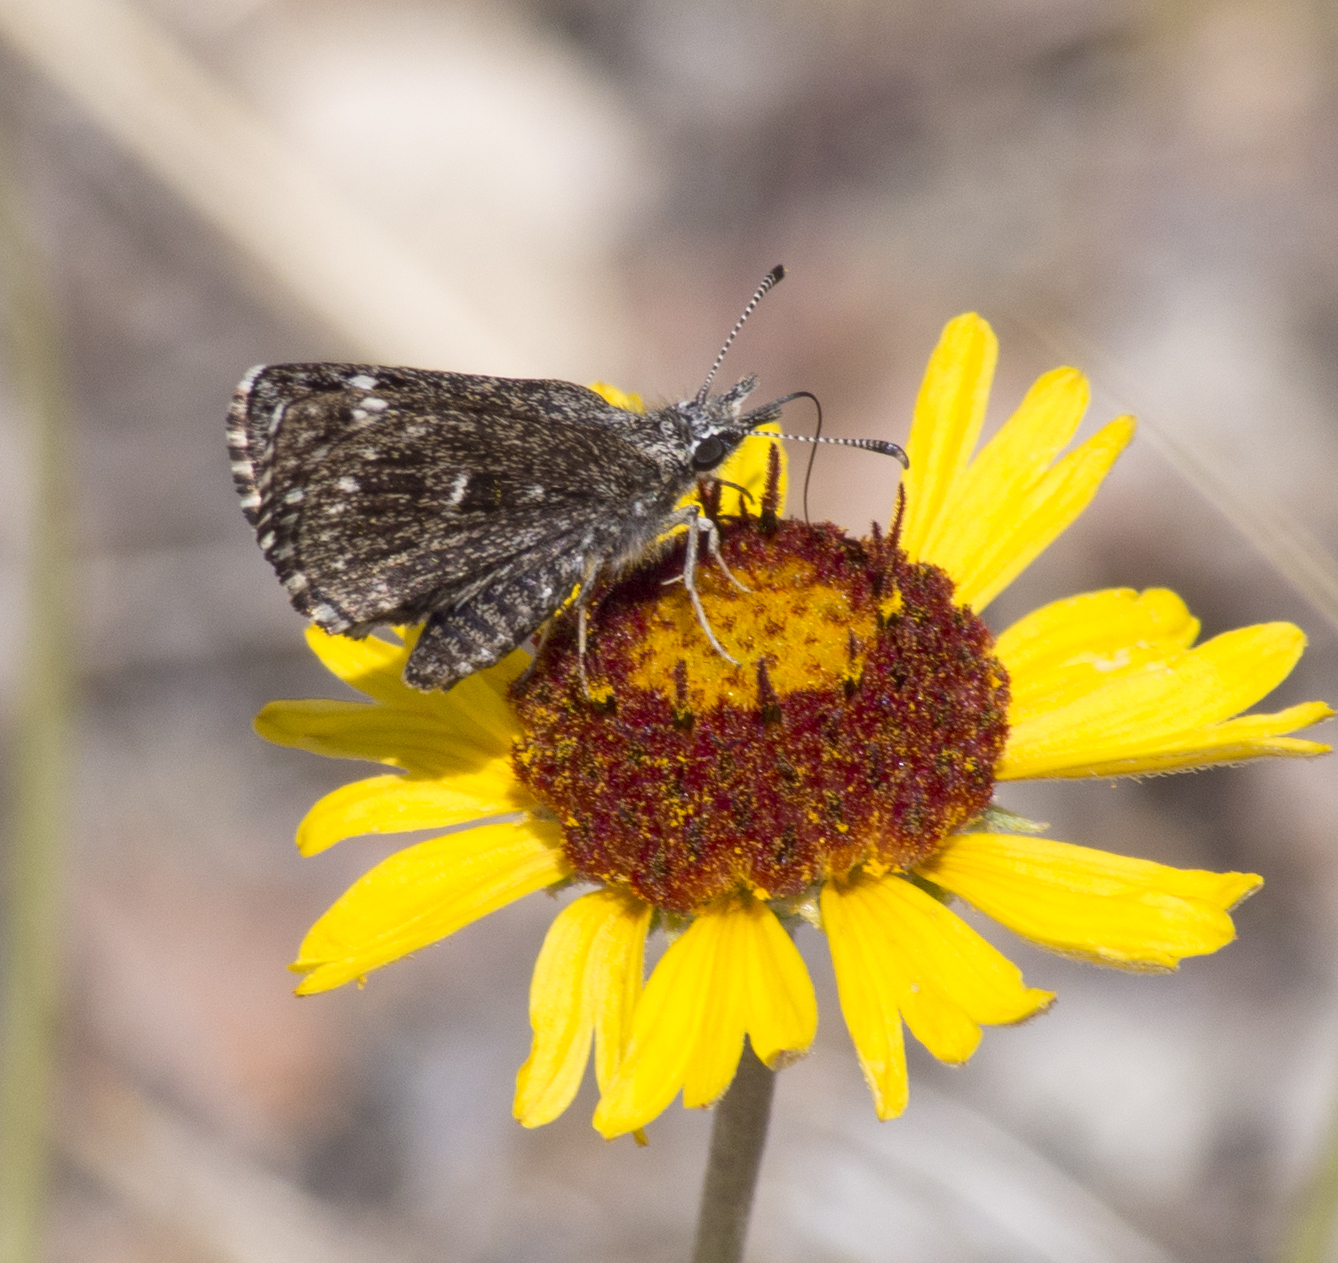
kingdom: Animalia
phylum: Arthropoda
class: Insecta
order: Lepidoptera
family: Hesperiidae
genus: Hesperopsis
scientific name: Hesperopsis alpheus
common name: Saltbush sootywing
